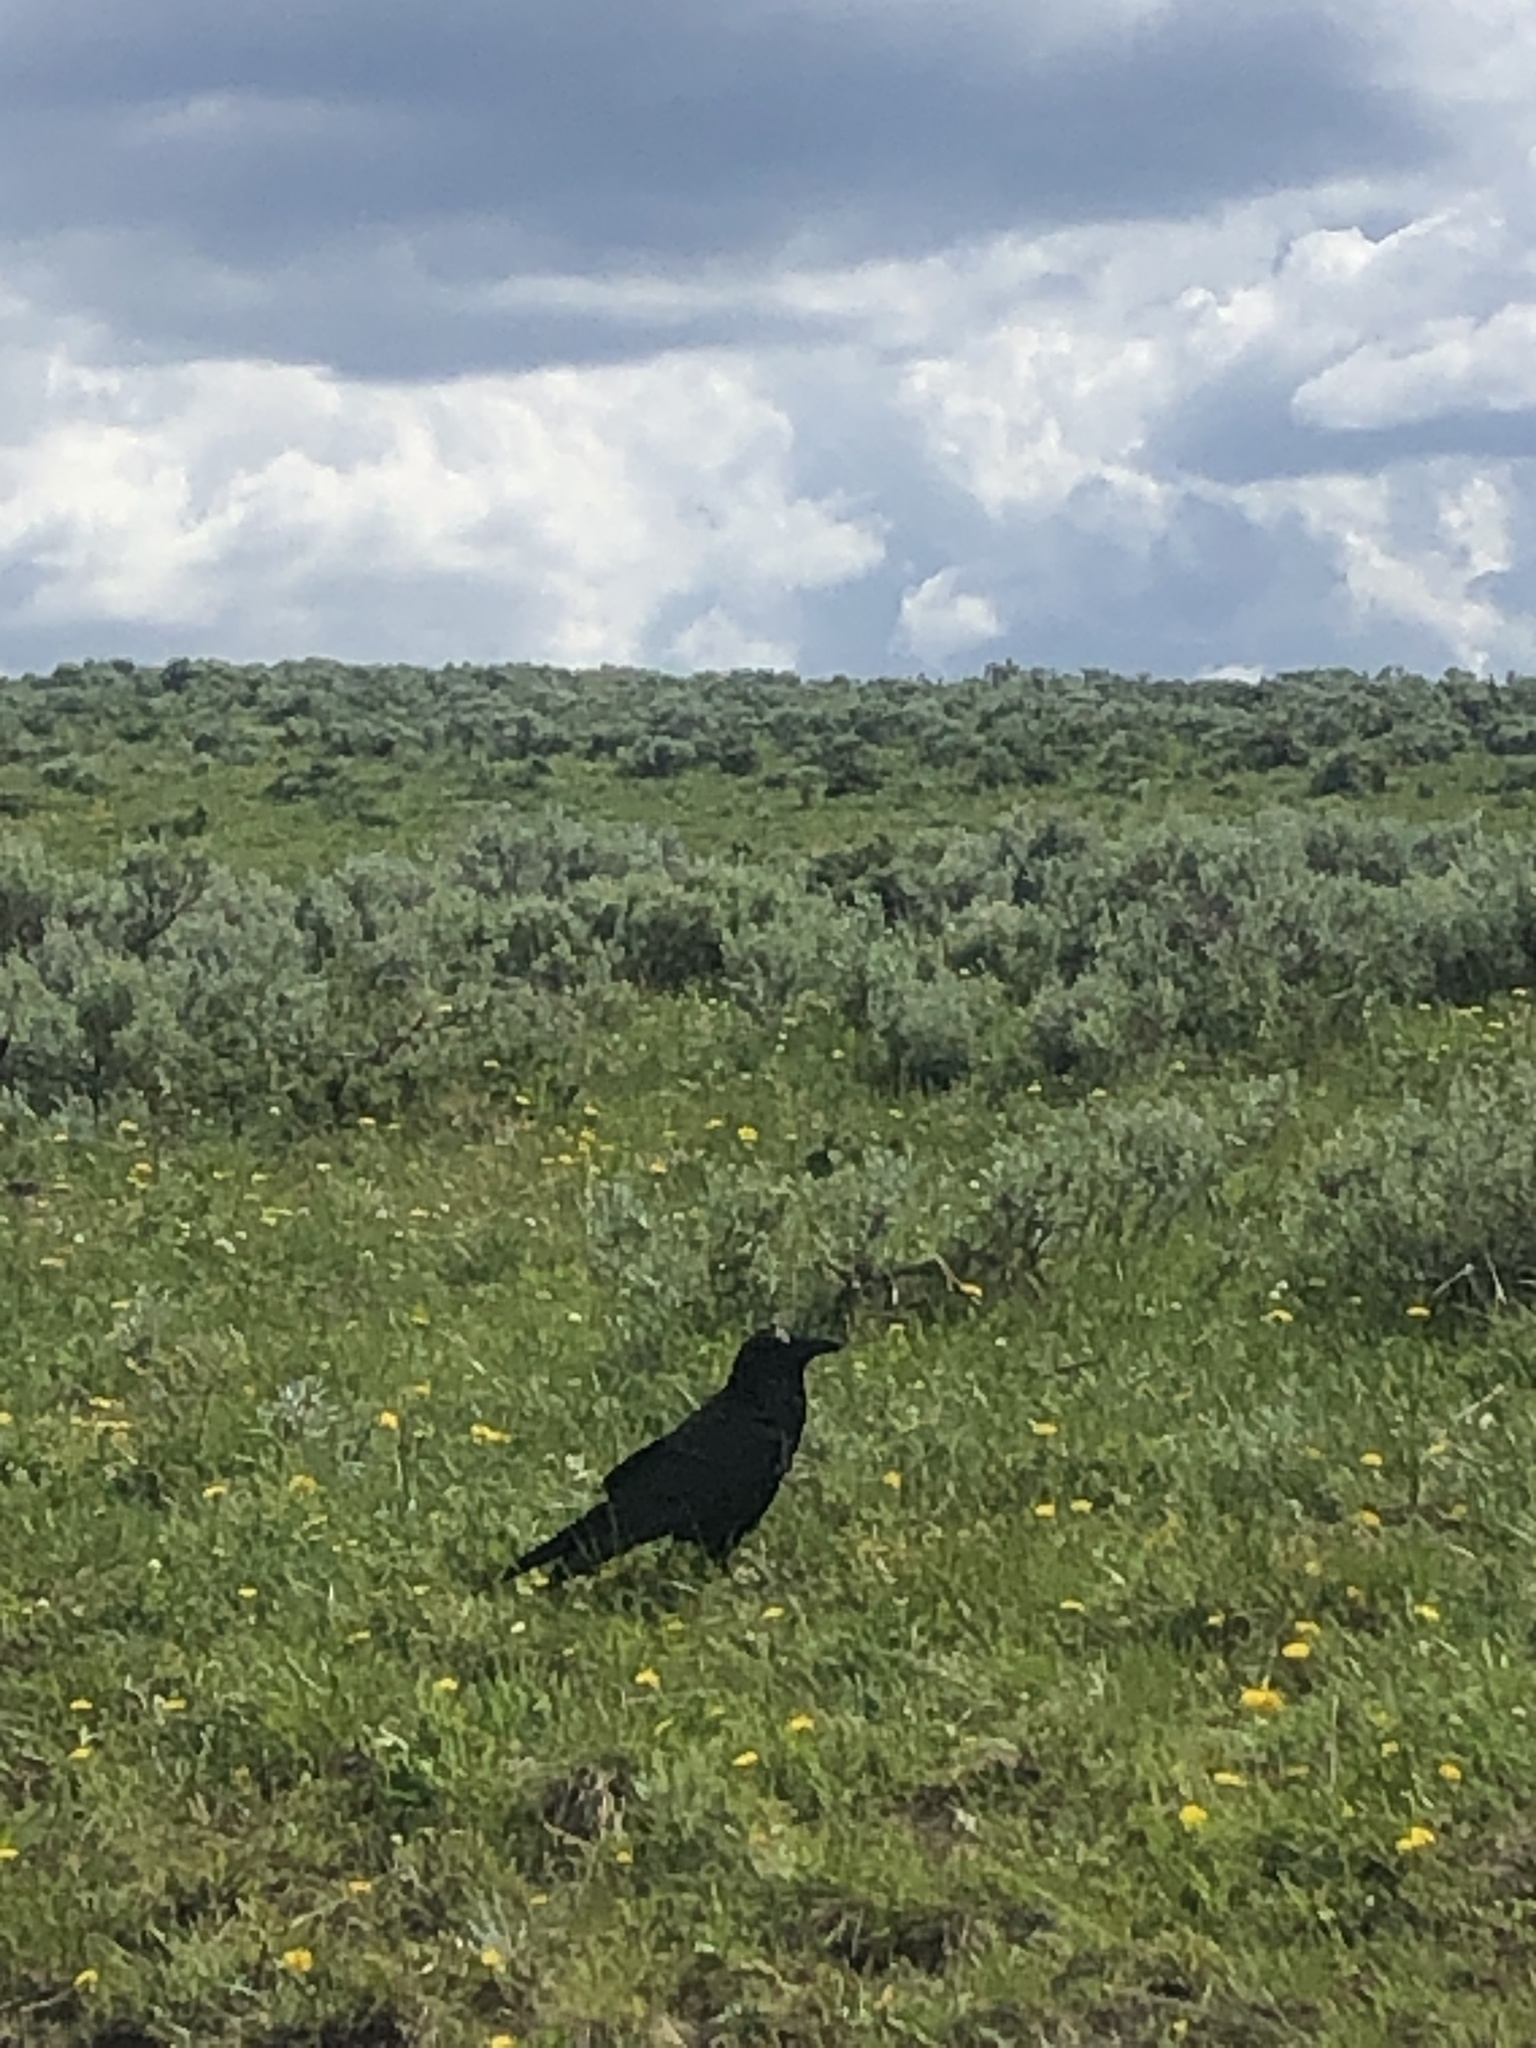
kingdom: Animalia
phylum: Chordata
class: Aves
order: Passeriformes
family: Corvidae
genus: Corvus
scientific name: Corvus corax
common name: Common raven
